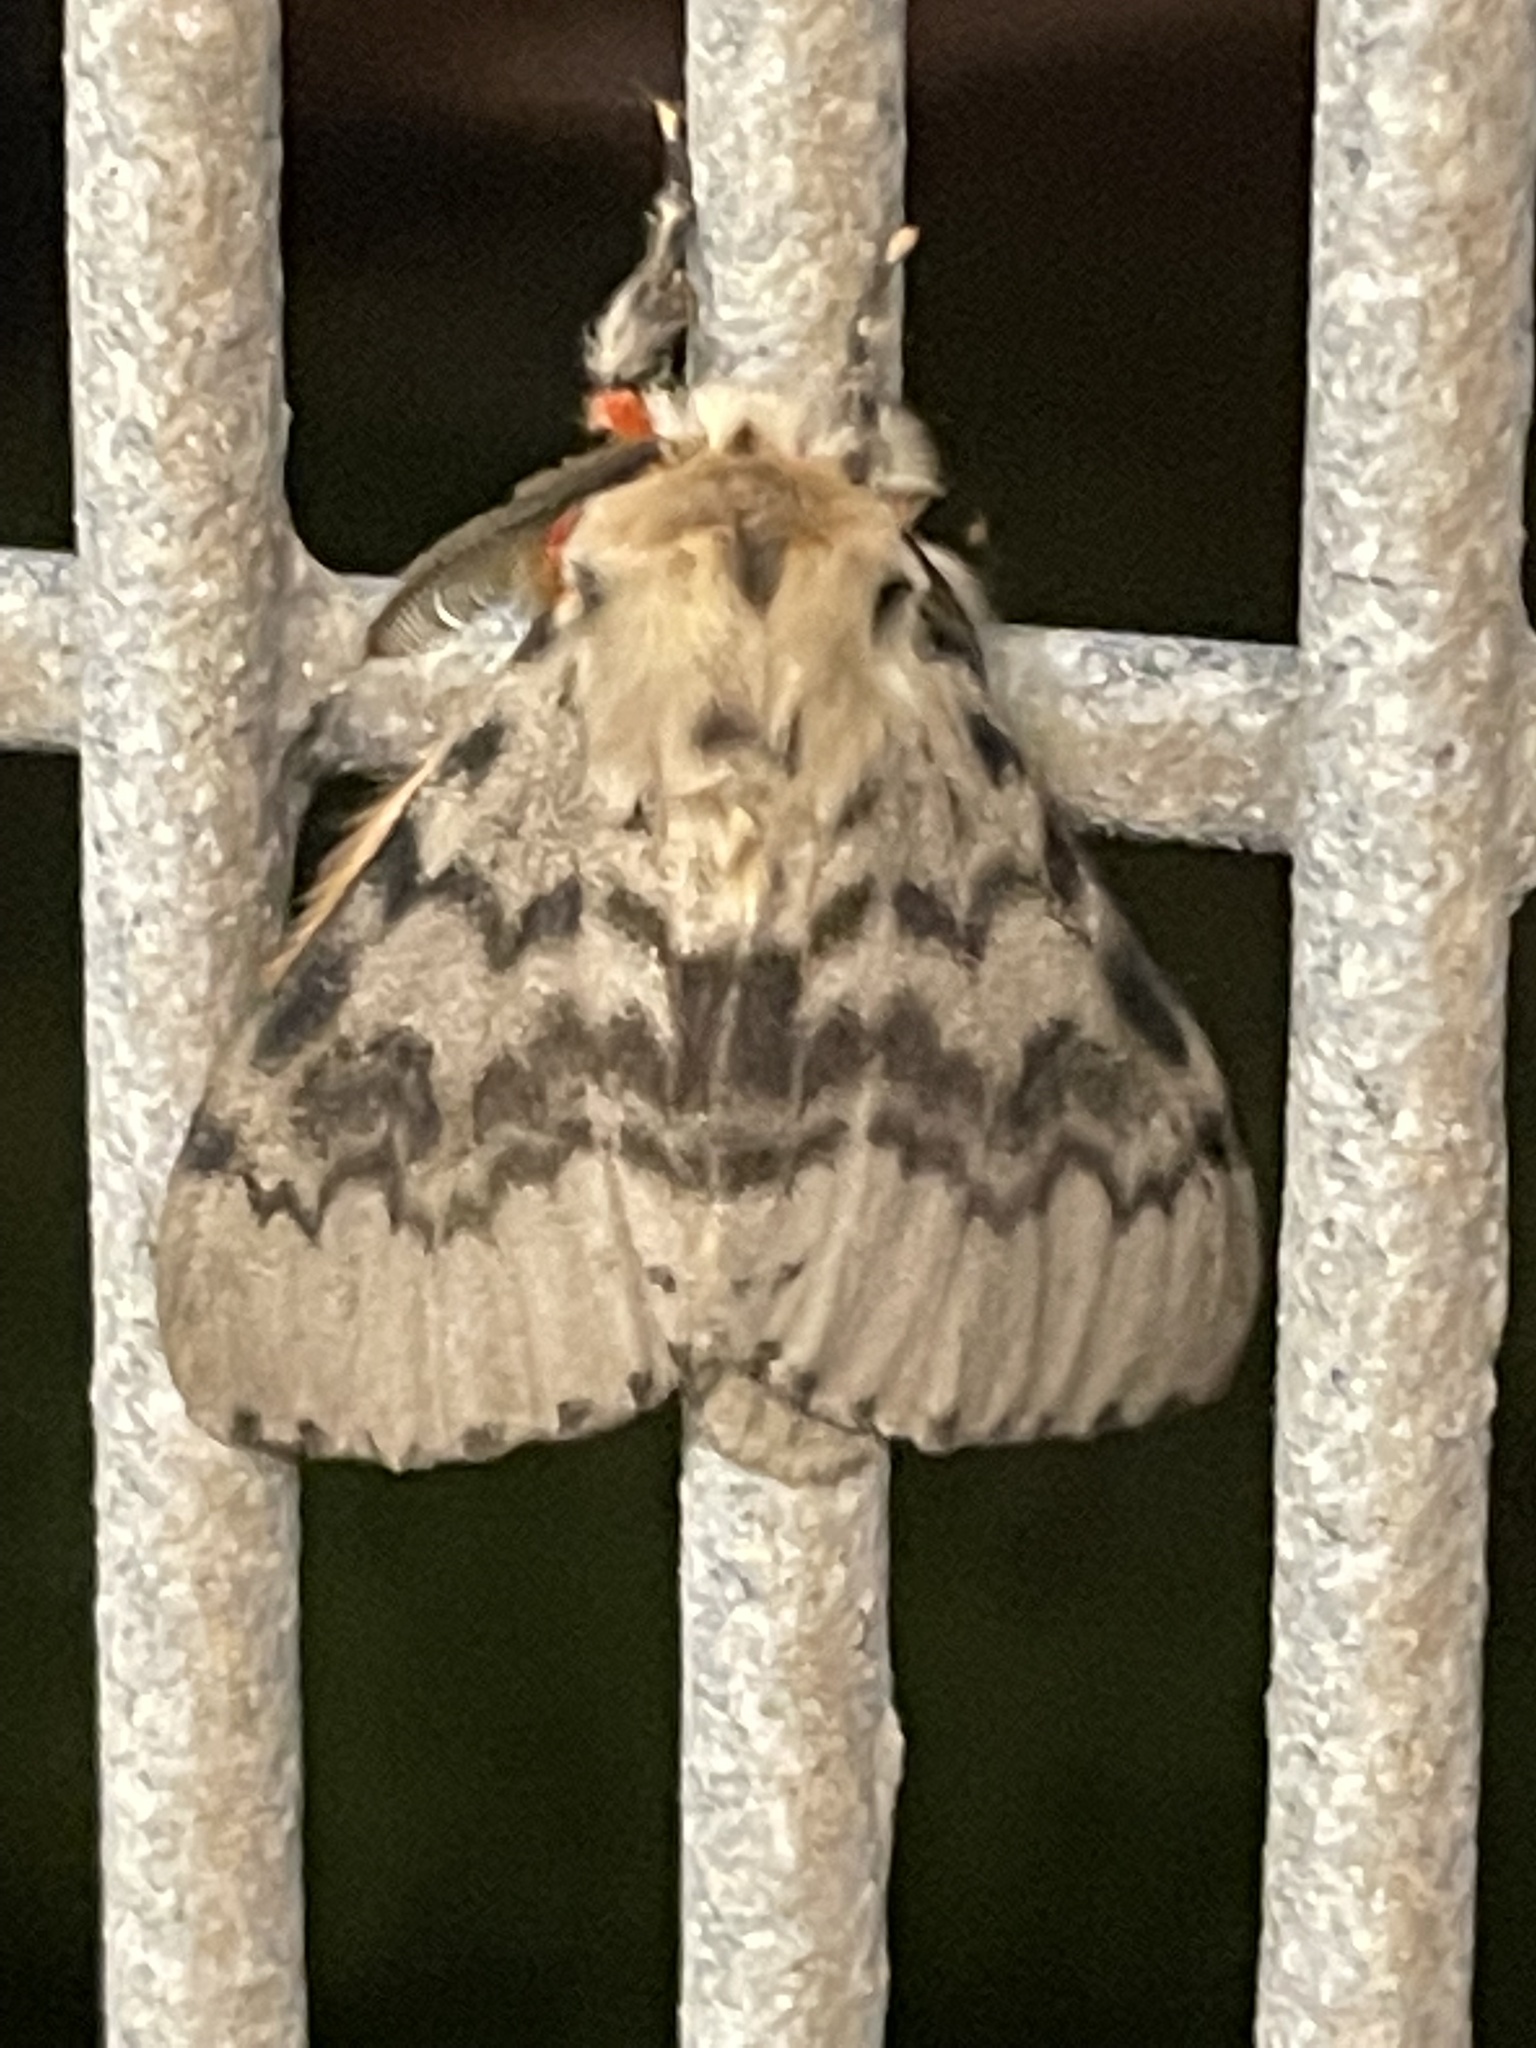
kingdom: Animalia
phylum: Arthropoda
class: Insecta
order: Lepidoptera
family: Erebidae
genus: Lymantria
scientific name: Lymantria antennata
